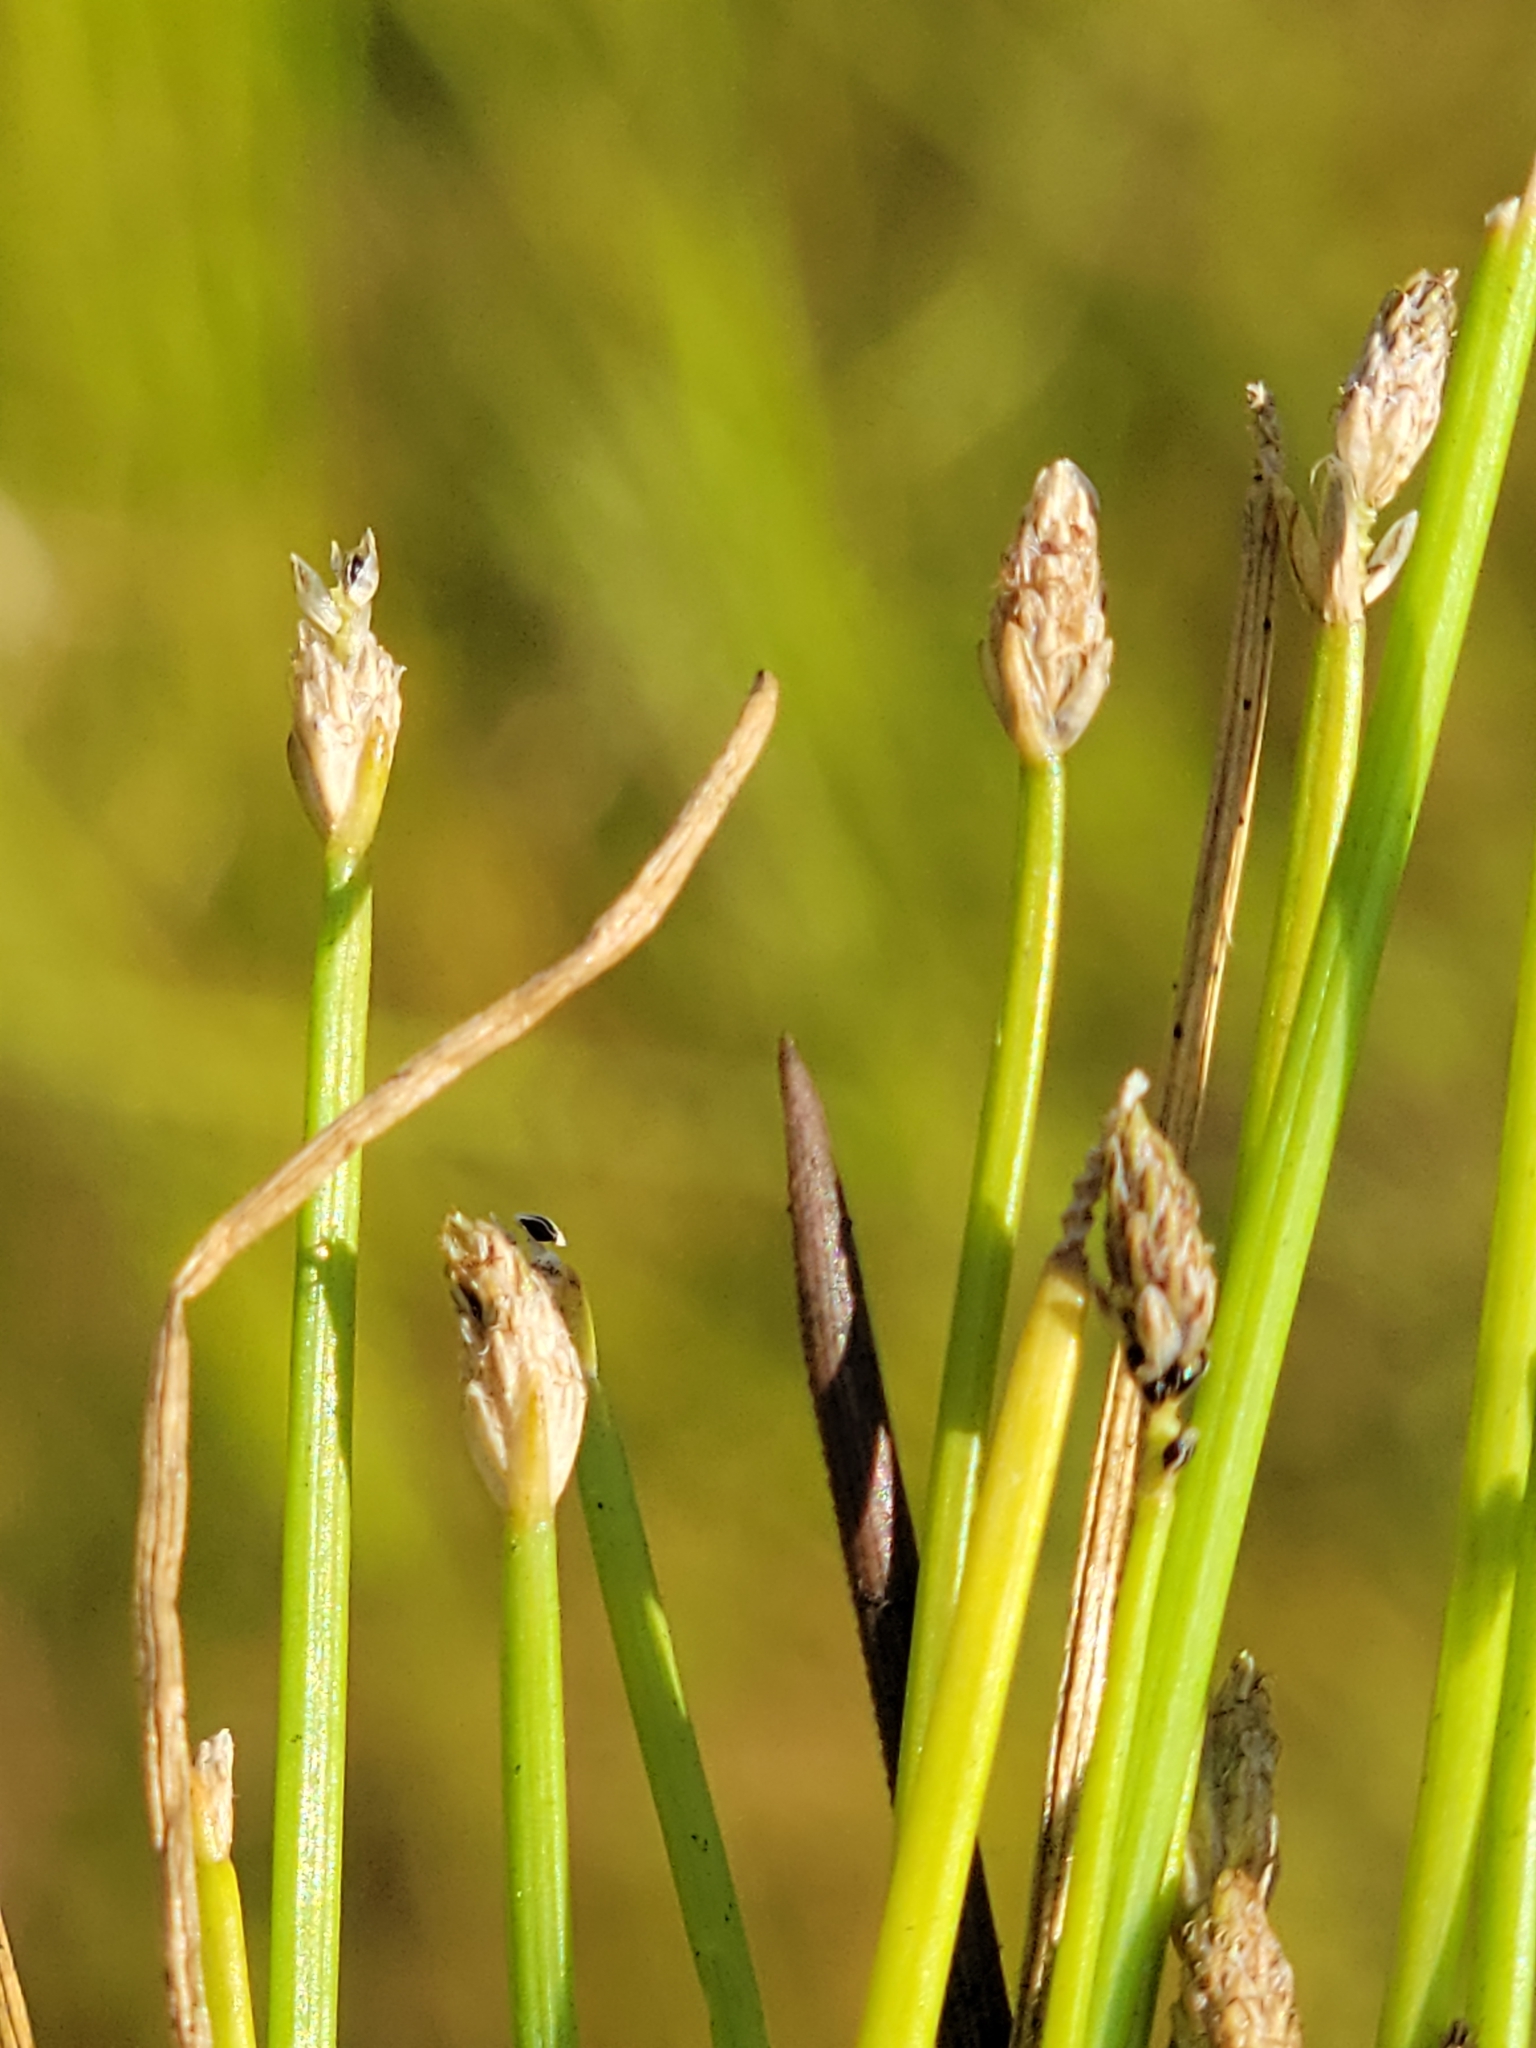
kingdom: Plantae
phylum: Tracheophyta
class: Liliopsida
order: Poales
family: Cyperaceae
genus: Eleocharis
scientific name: Eleocharis flavescens
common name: Yellow spikerush
